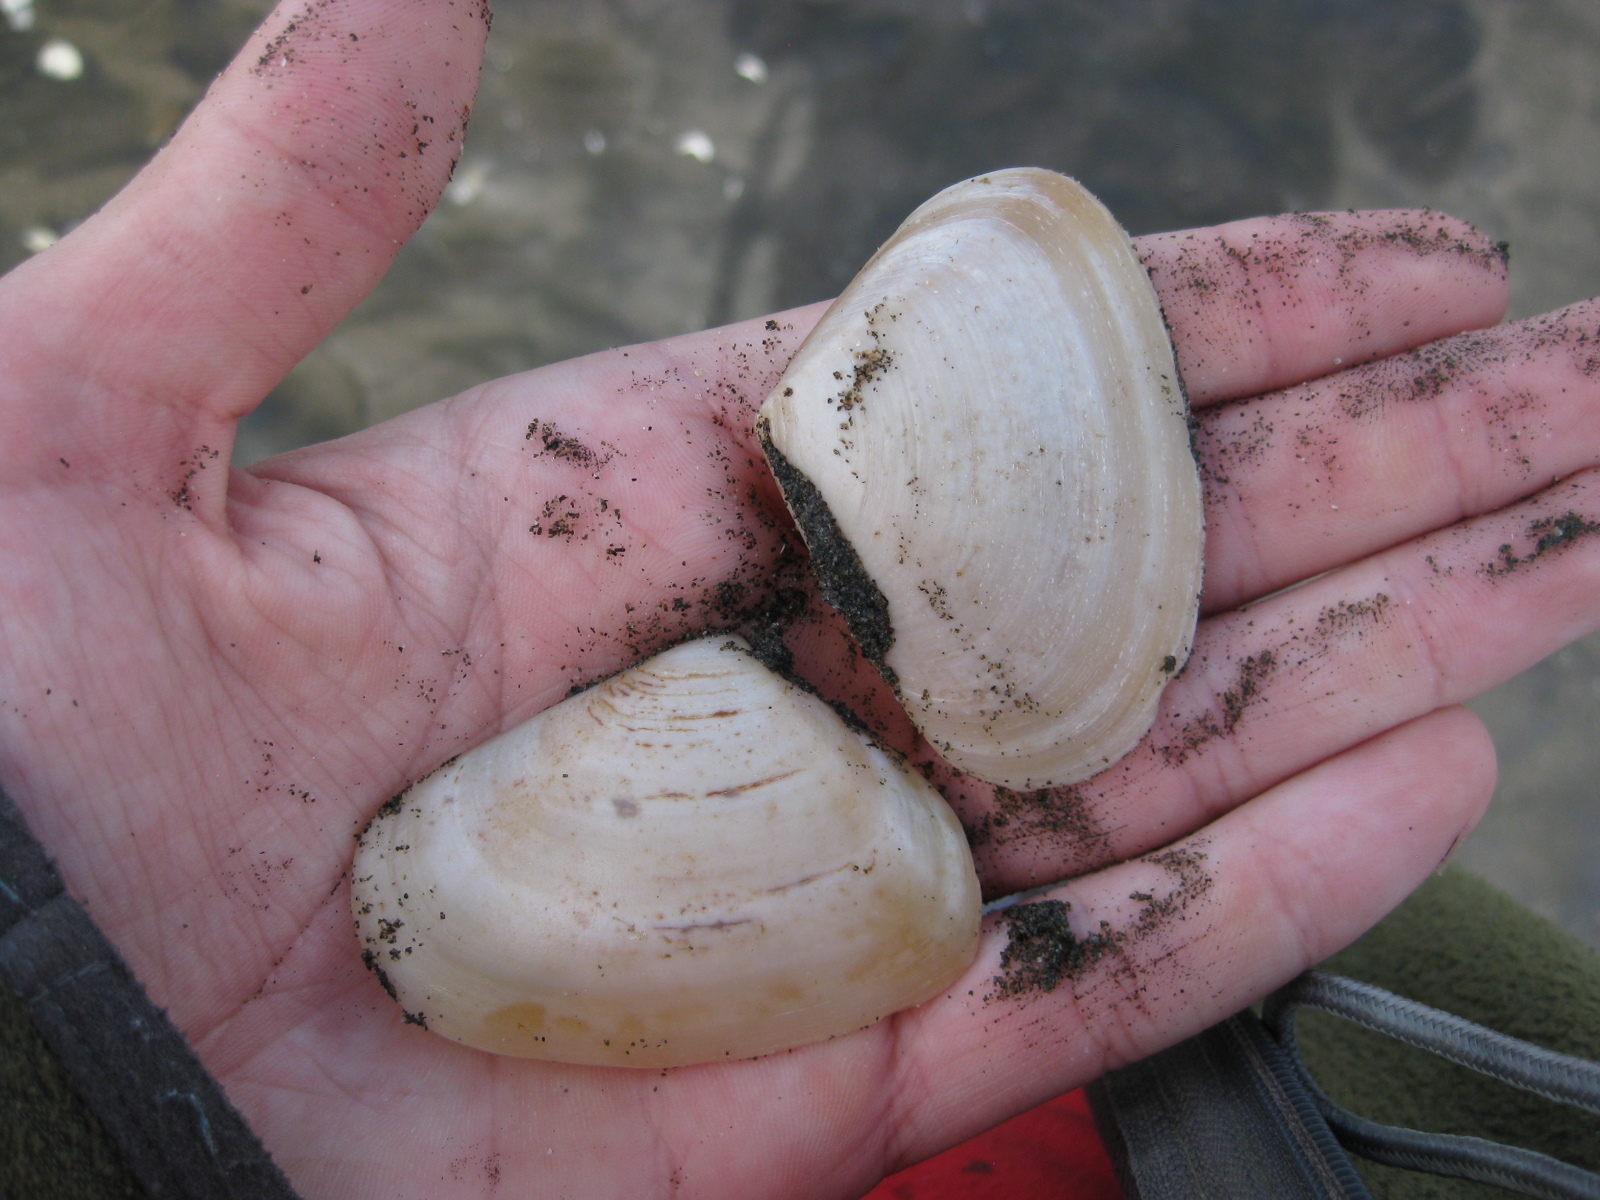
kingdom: Animalia
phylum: Mollusca
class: Bivalvia
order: Venerida
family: Mesodesmatidae
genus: Paphies
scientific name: Paphies donacina
